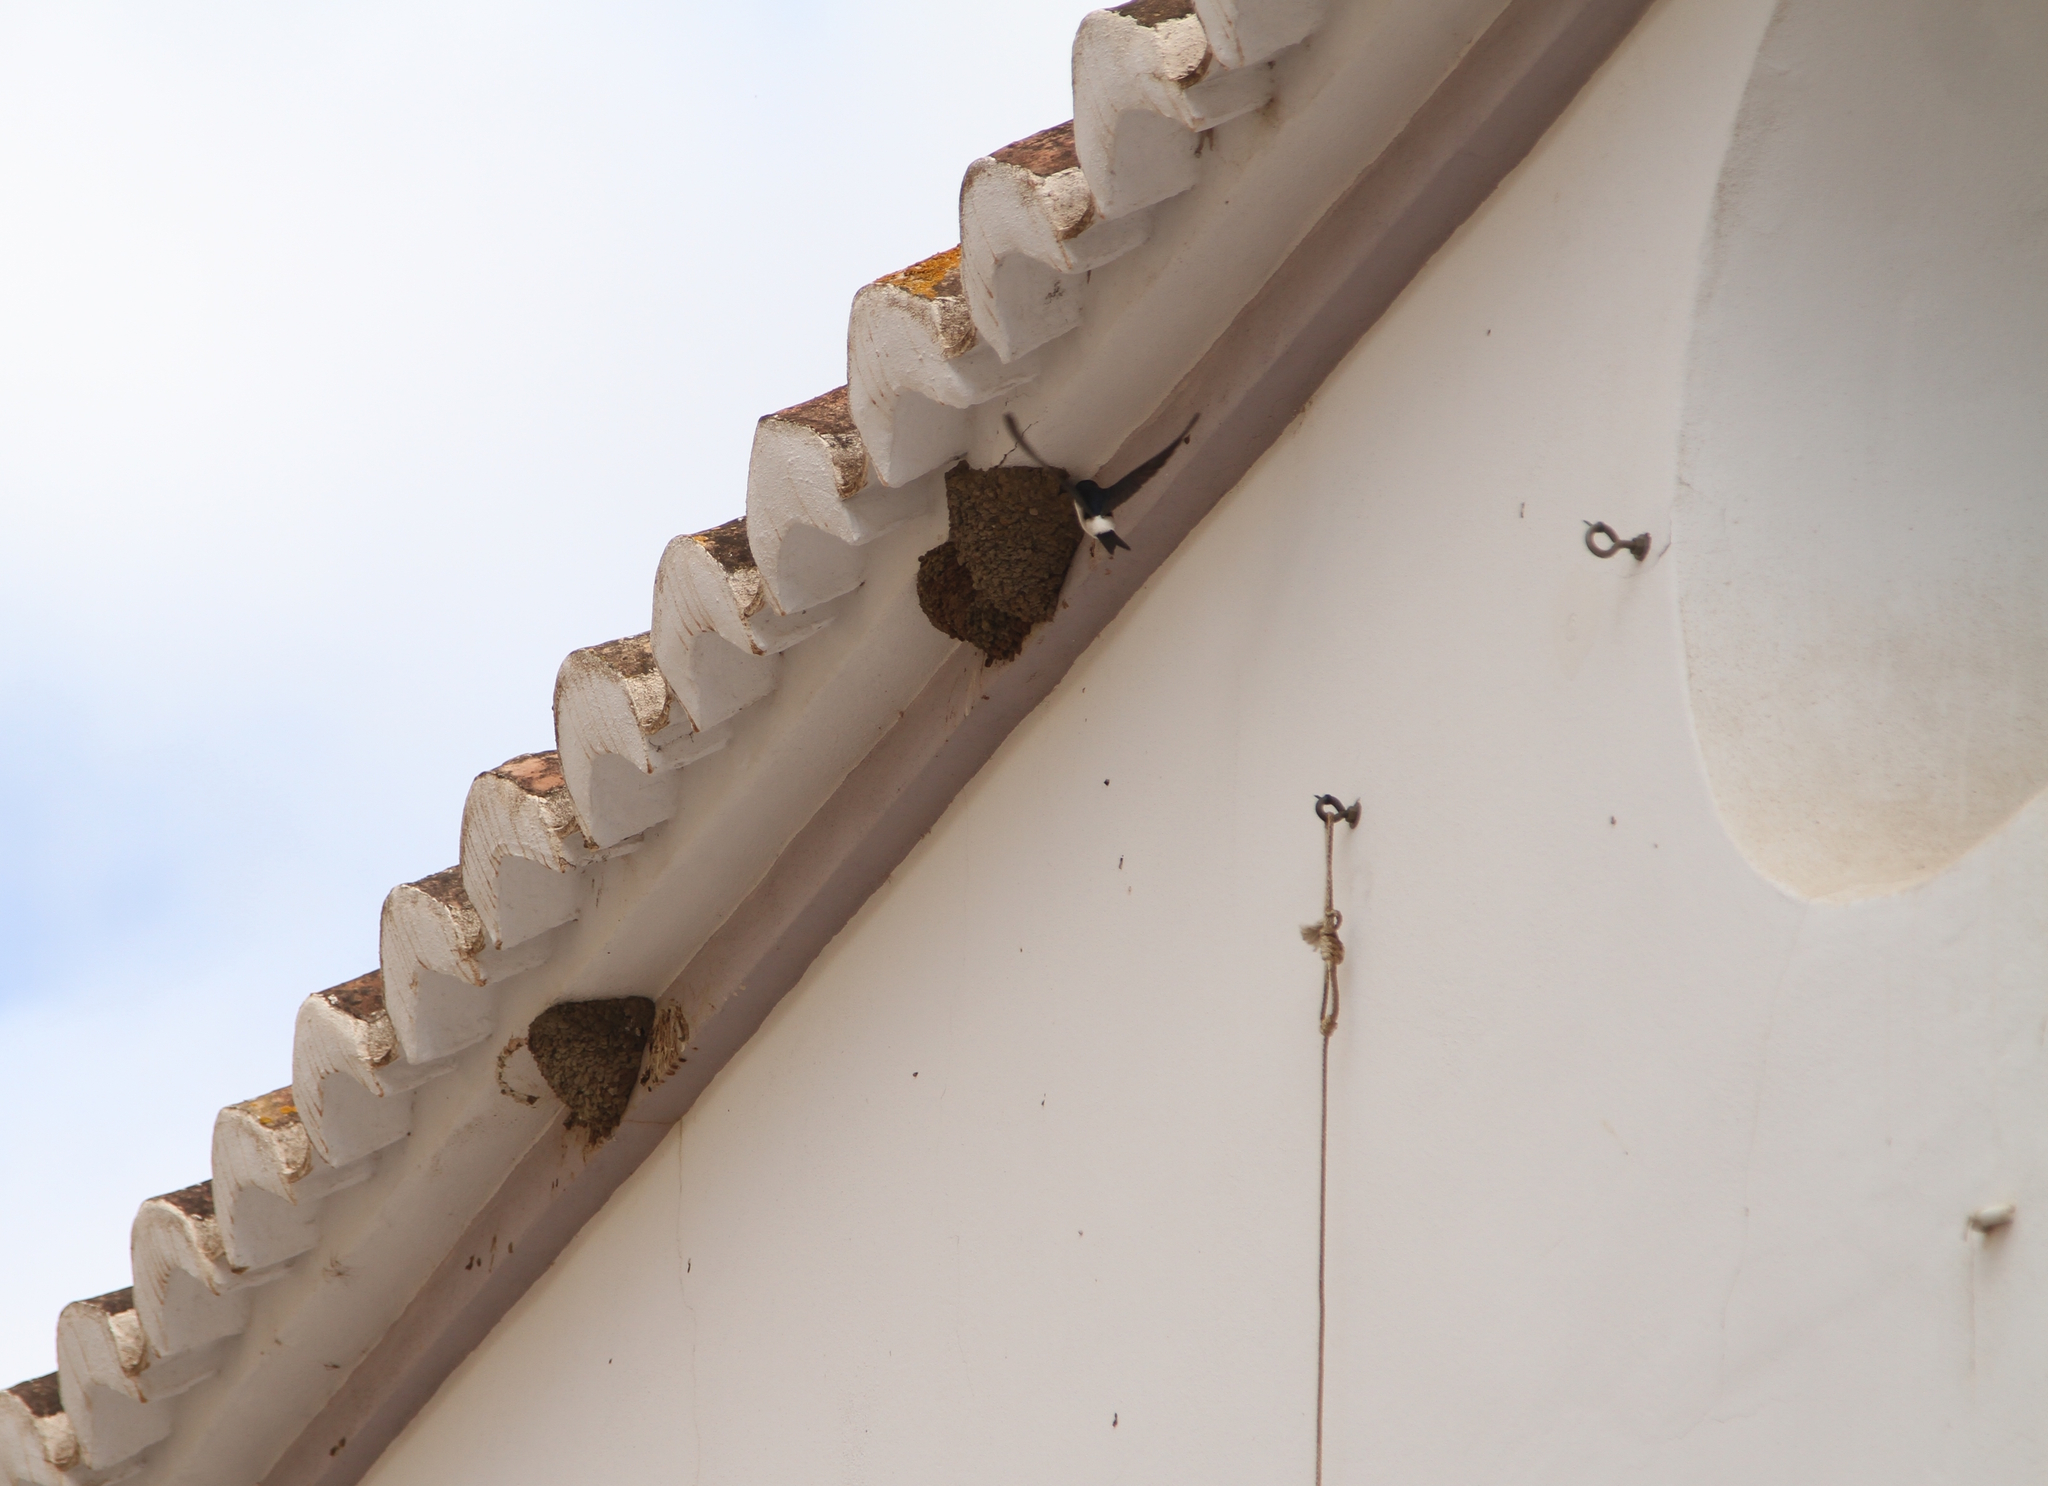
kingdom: Animalia
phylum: Chordata
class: Aves
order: Passeriformes
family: Hirundinidae
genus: Delichon
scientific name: Delichon urbicum
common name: Common house martin
